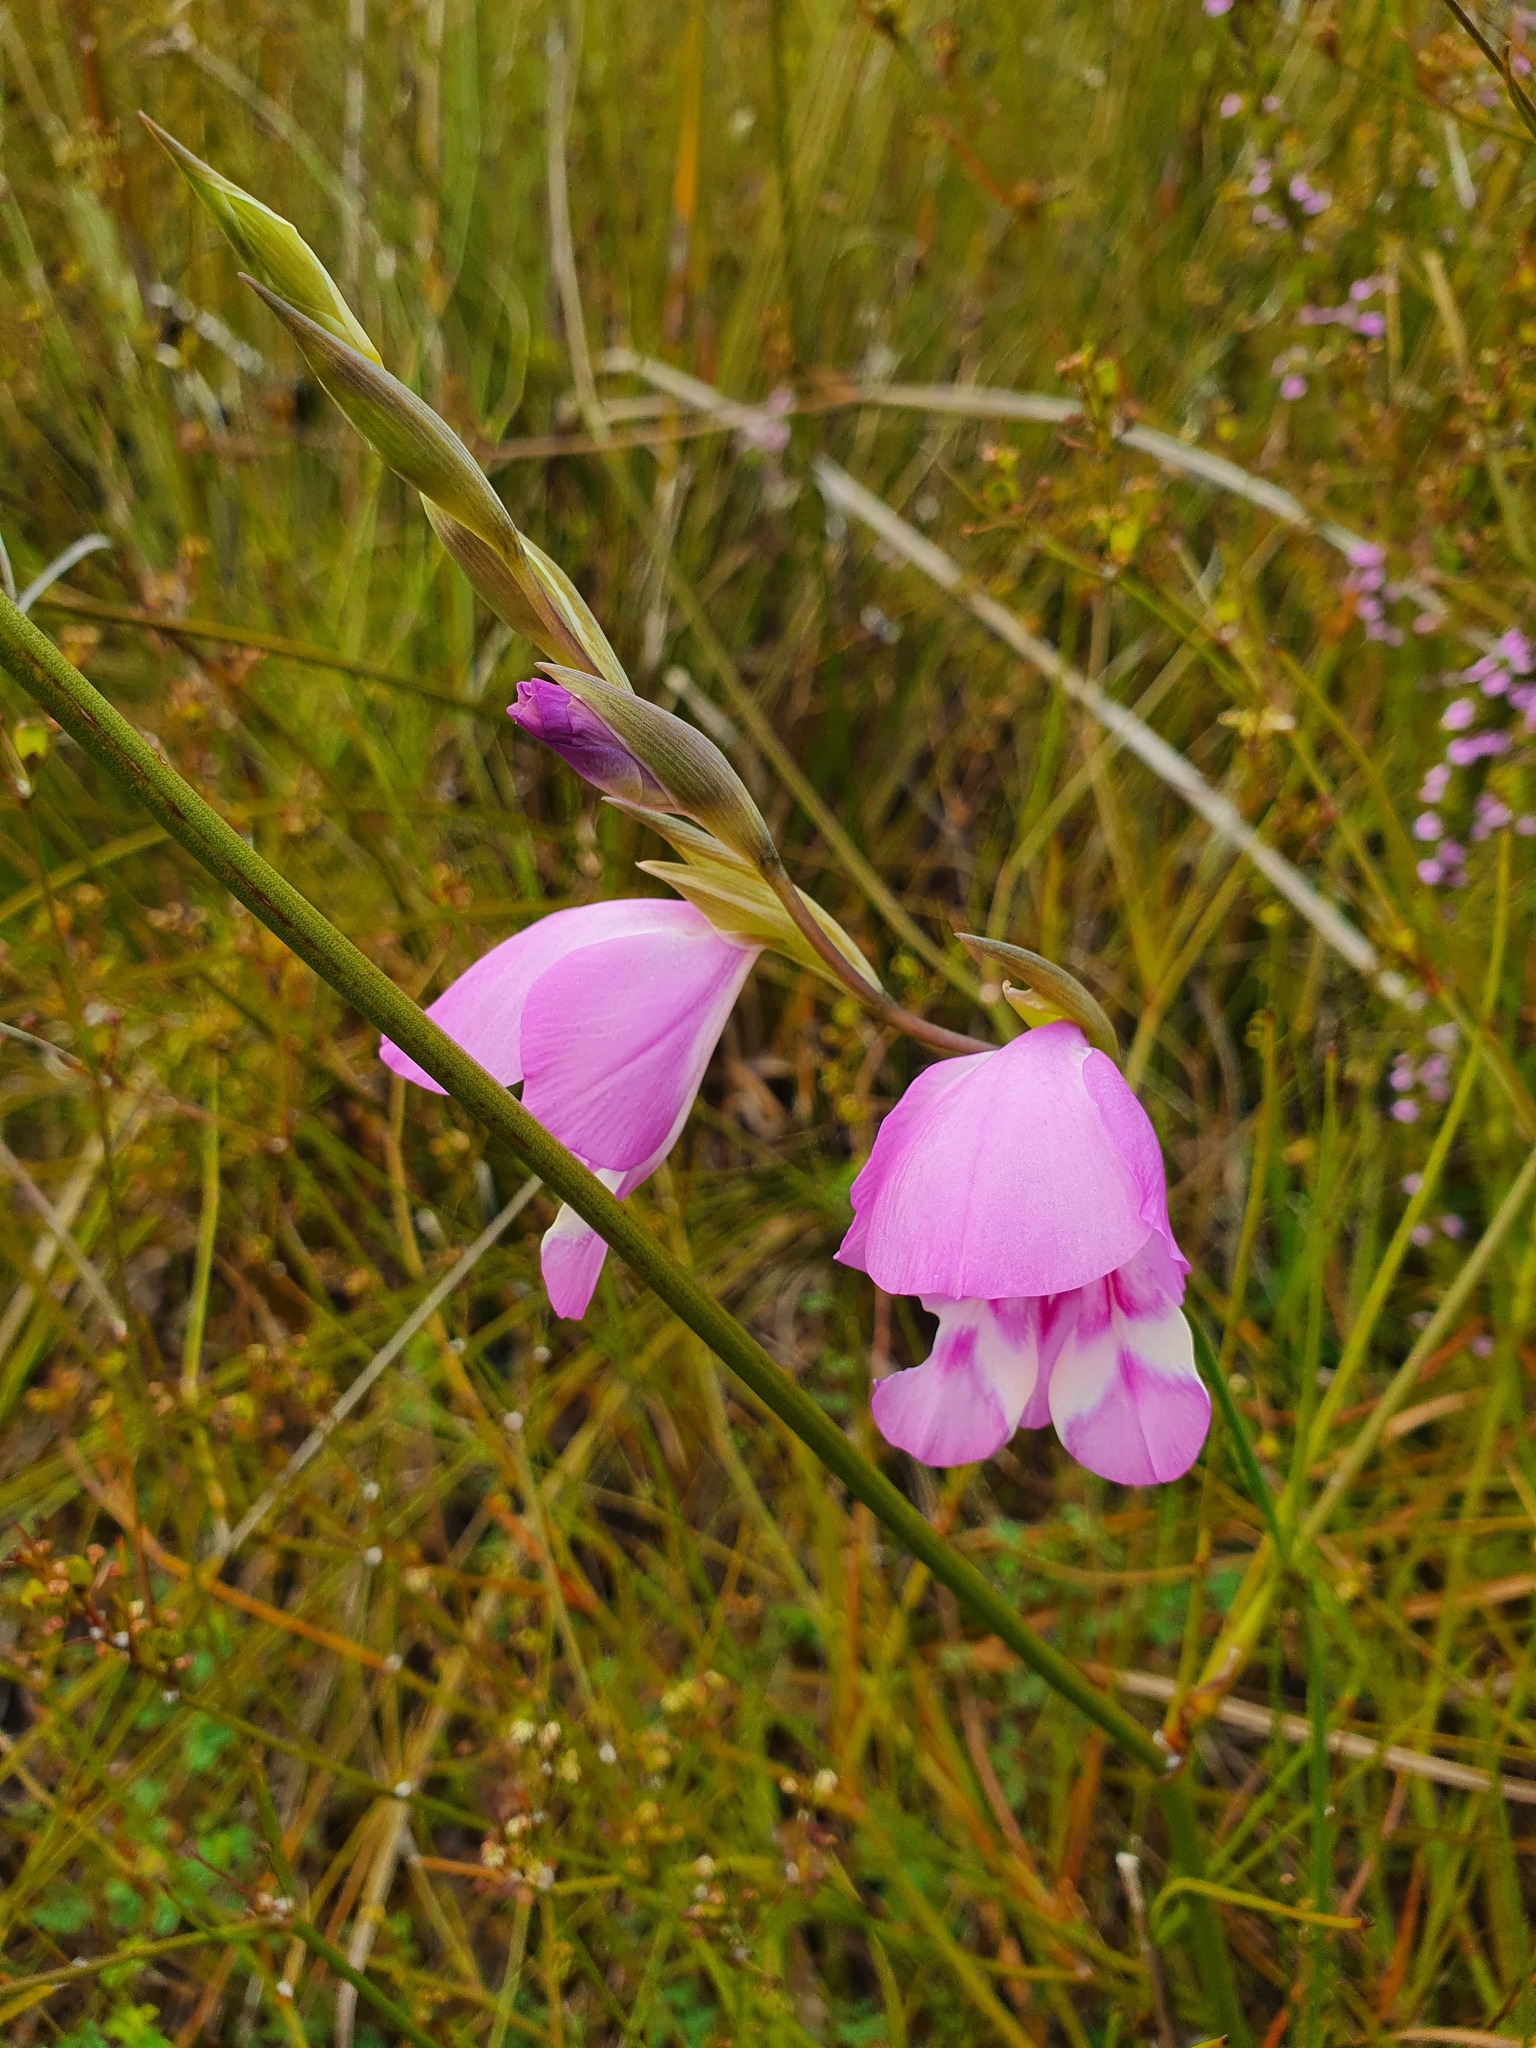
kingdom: Plantae
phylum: Tracheophyta
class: Liliopsida
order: Asparagales
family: Iridaceae
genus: Gladiolus
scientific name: Gladiolus rogersii
